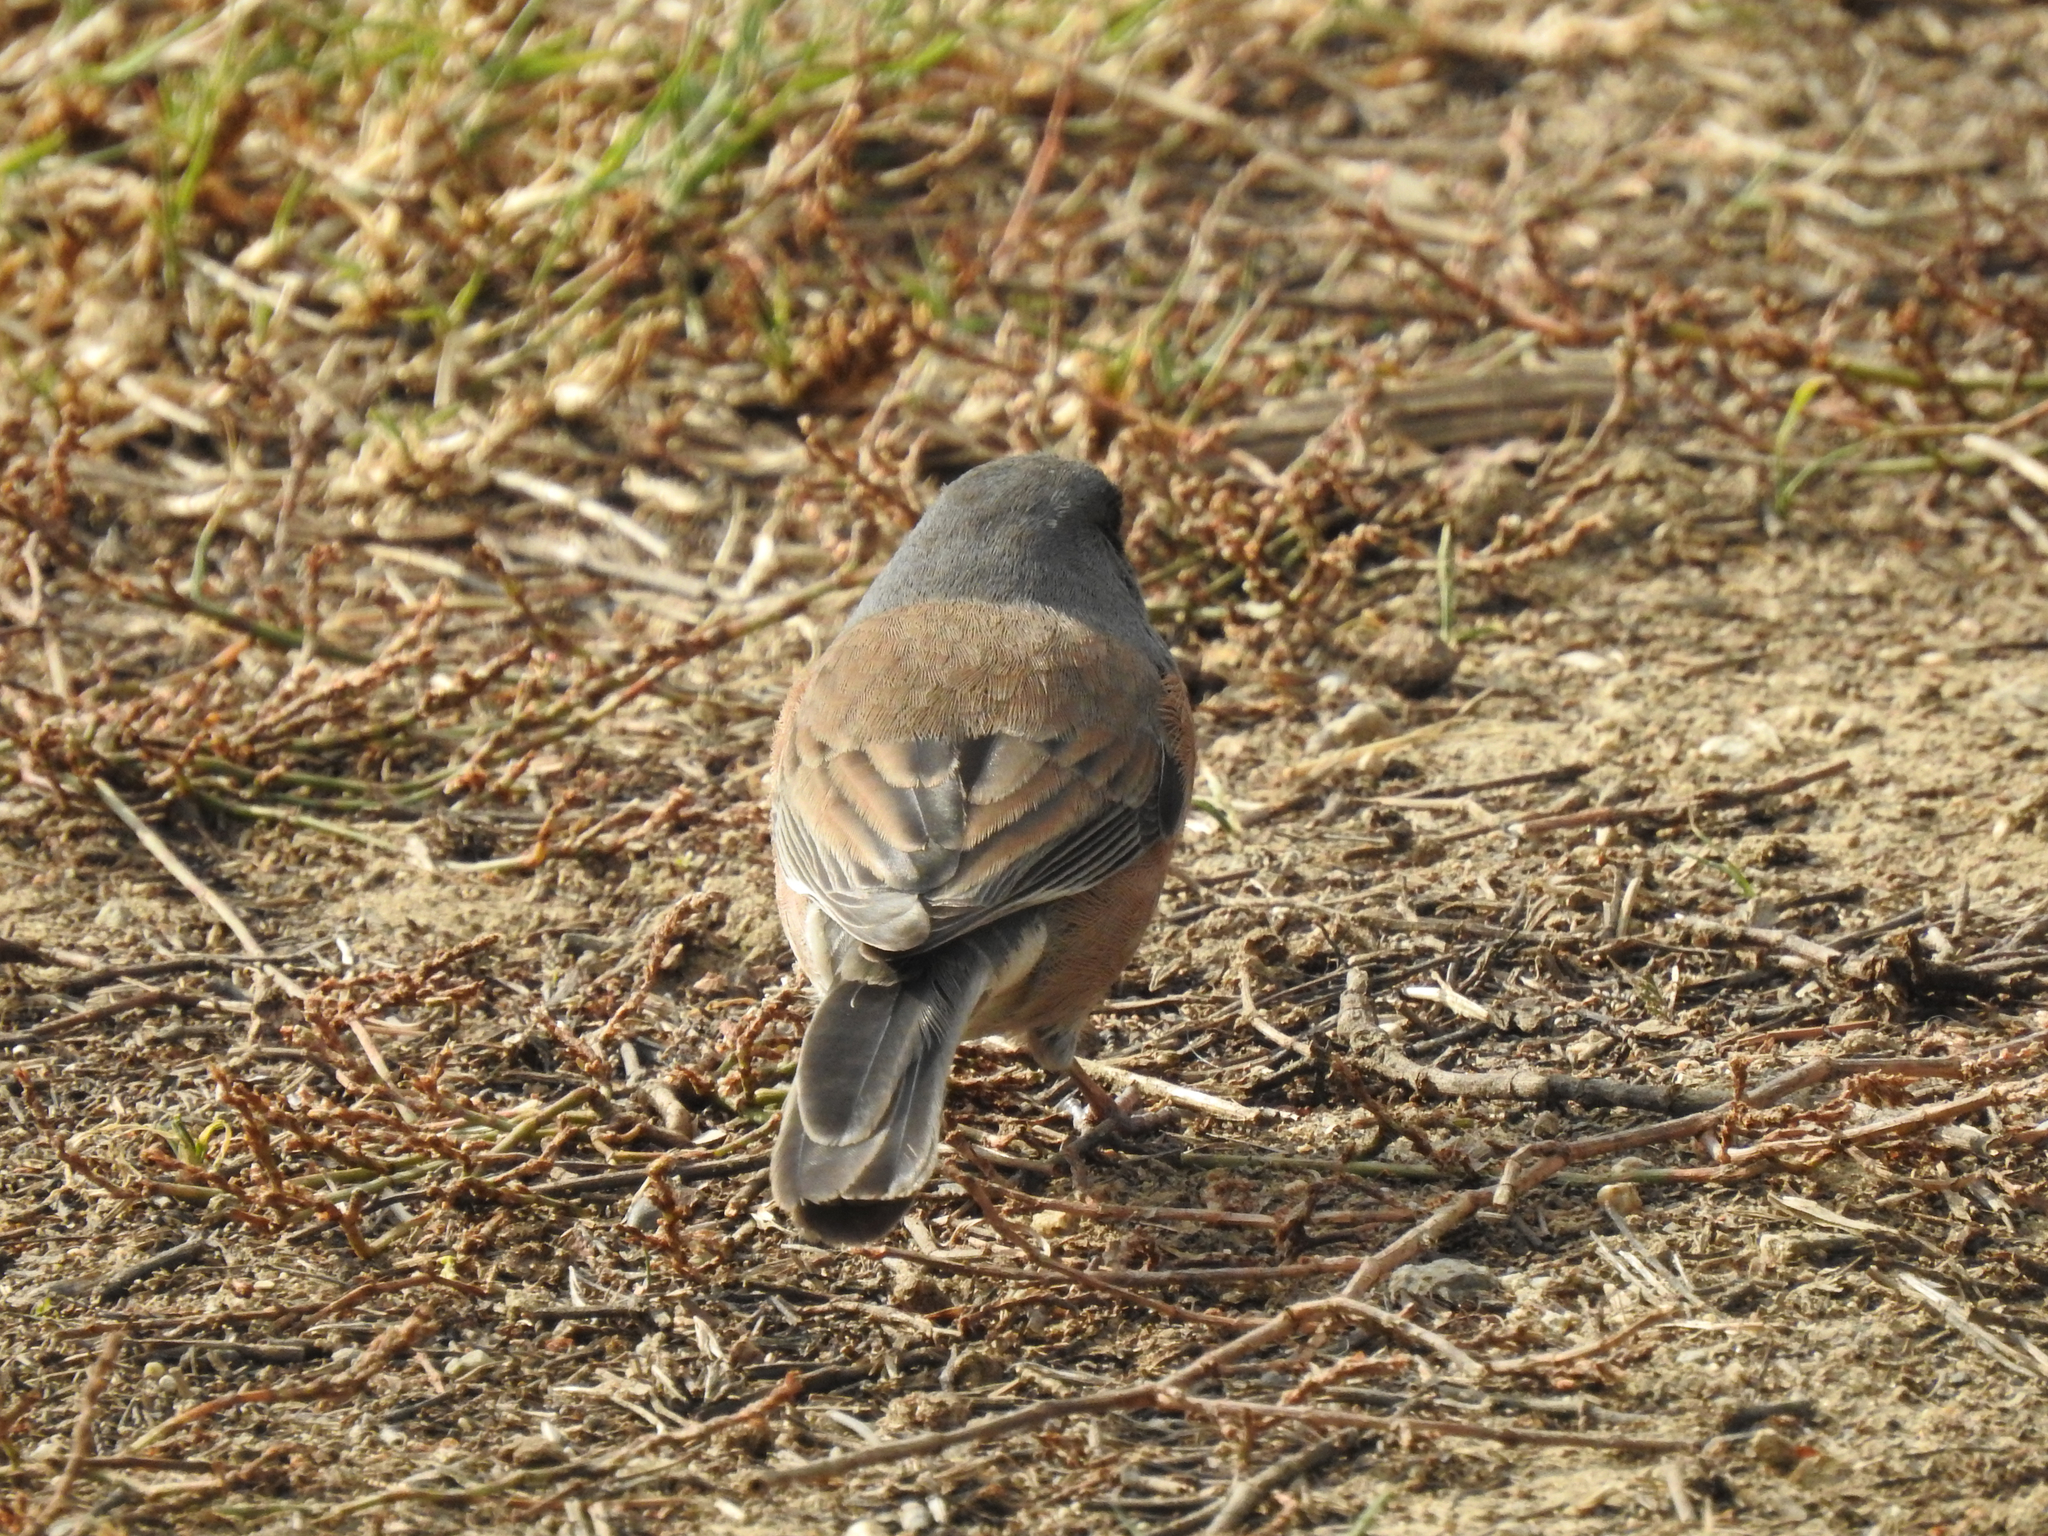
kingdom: Animalia
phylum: Chordata
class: Aves
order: Passeriformes
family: Passerellidae
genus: Junco
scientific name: Junco hyemalis
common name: Dark-eyed junco
